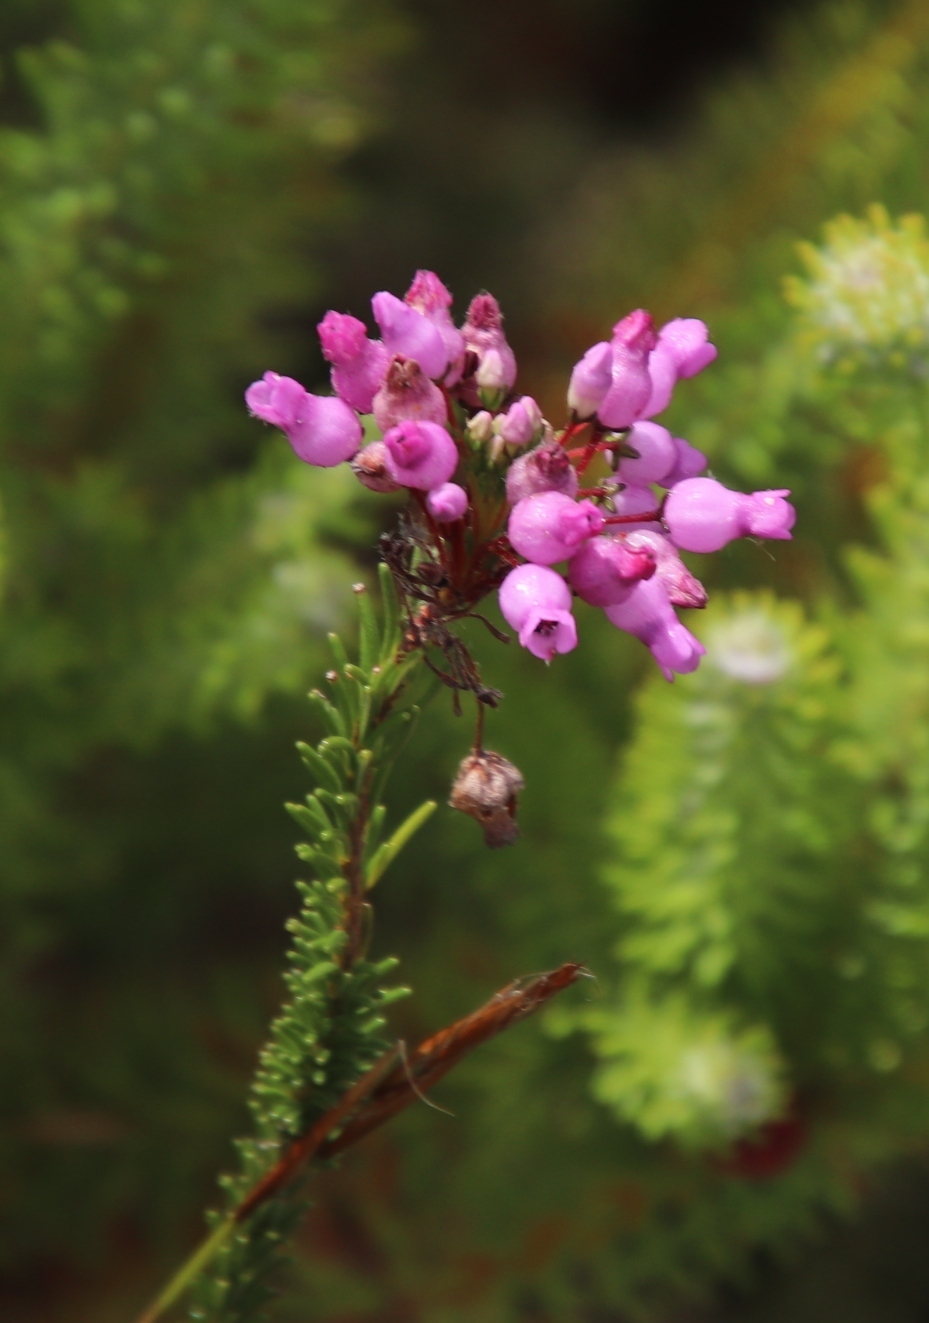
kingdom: Plantae
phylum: Tracheophyta
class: Magnoliopsida
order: Ericales
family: Ericaceae
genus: Erica
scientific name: Erica obliqua
